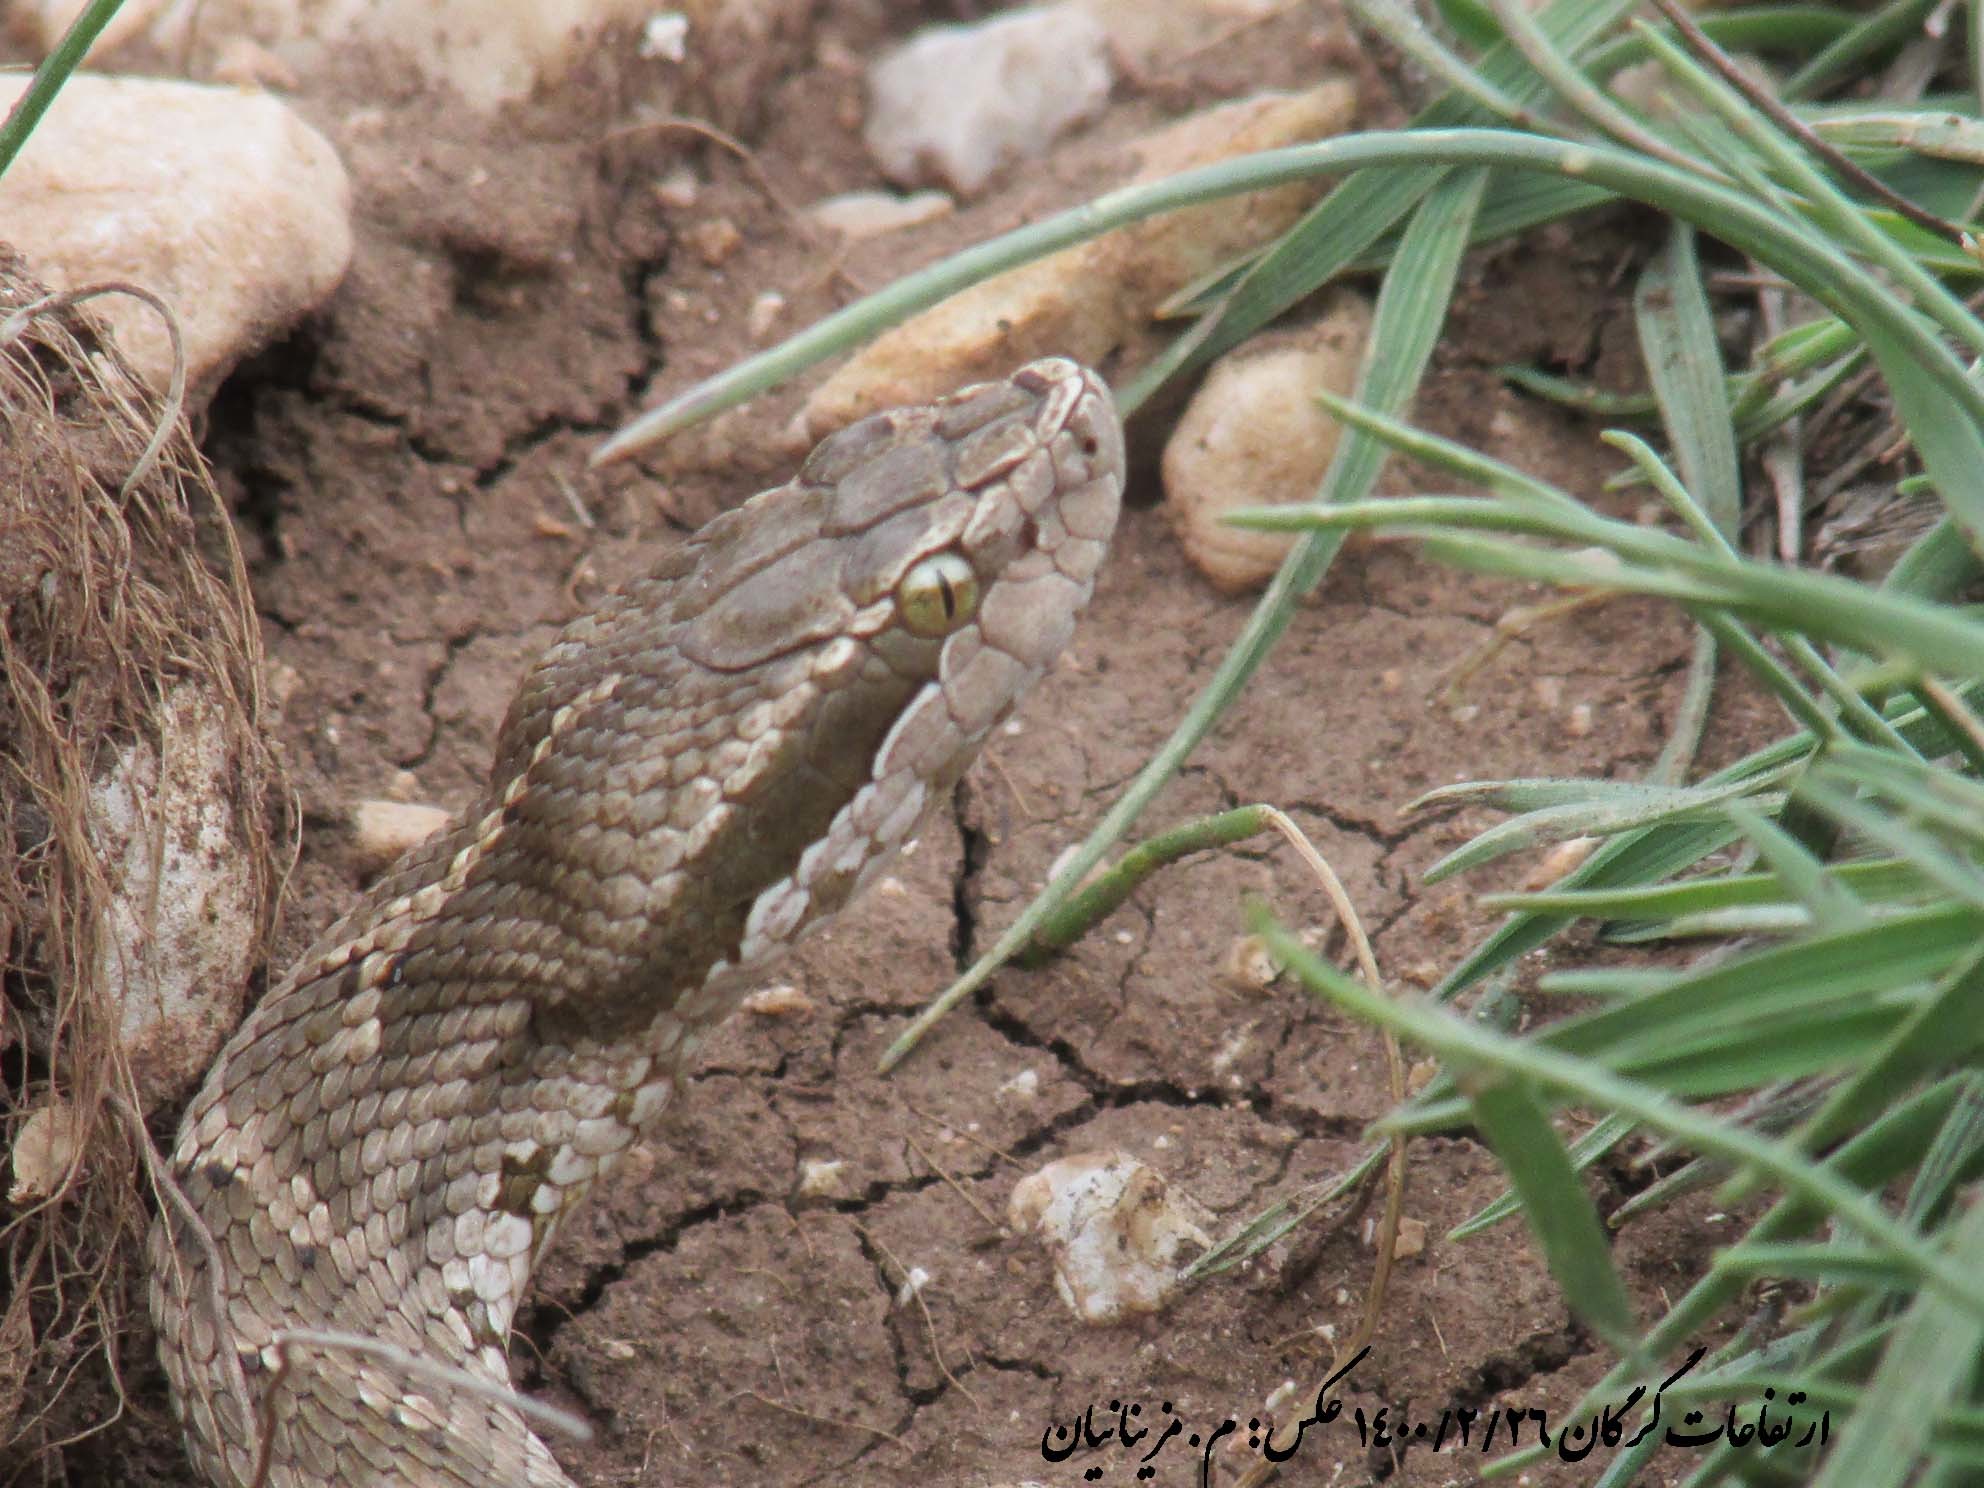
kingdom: Animalia
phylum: Chordata
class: Squamata
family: Viperidae
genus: Gloydius
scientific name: Gloydius caucasicus
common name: Caucasian pitviper
